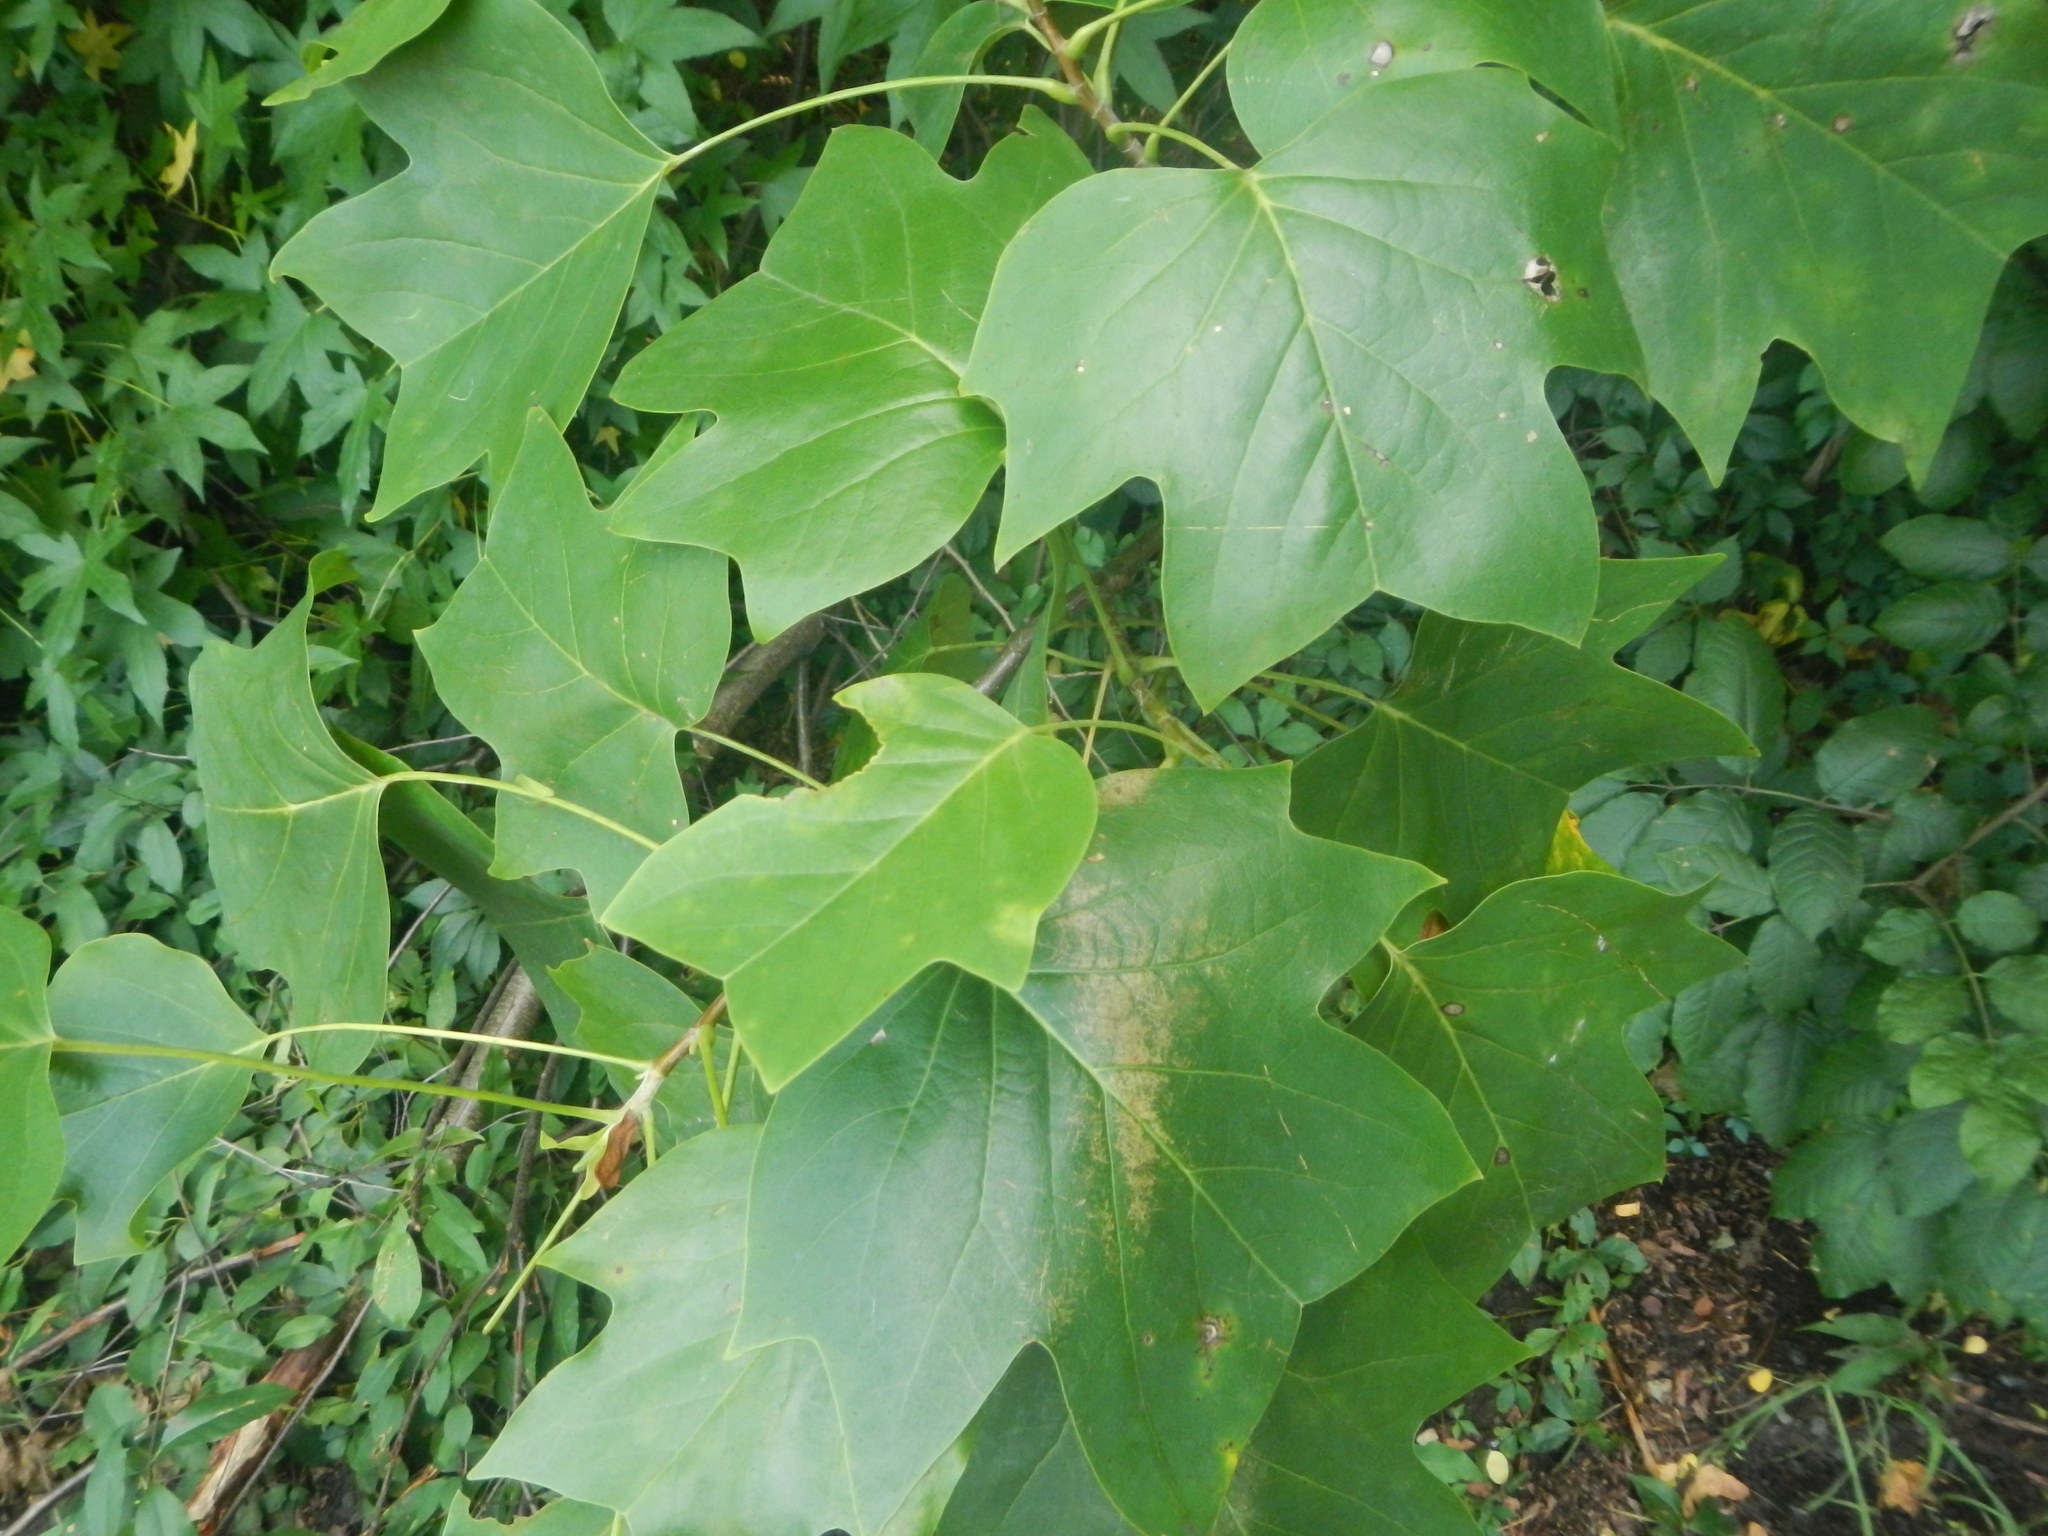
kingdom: Plantae
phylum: Tracheophyta
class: Magnoliopsida
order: Magnoliales
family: Magnoliaceae
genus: Liriodendron
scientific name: Liriodendron tulipifera
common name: Tulip tree
